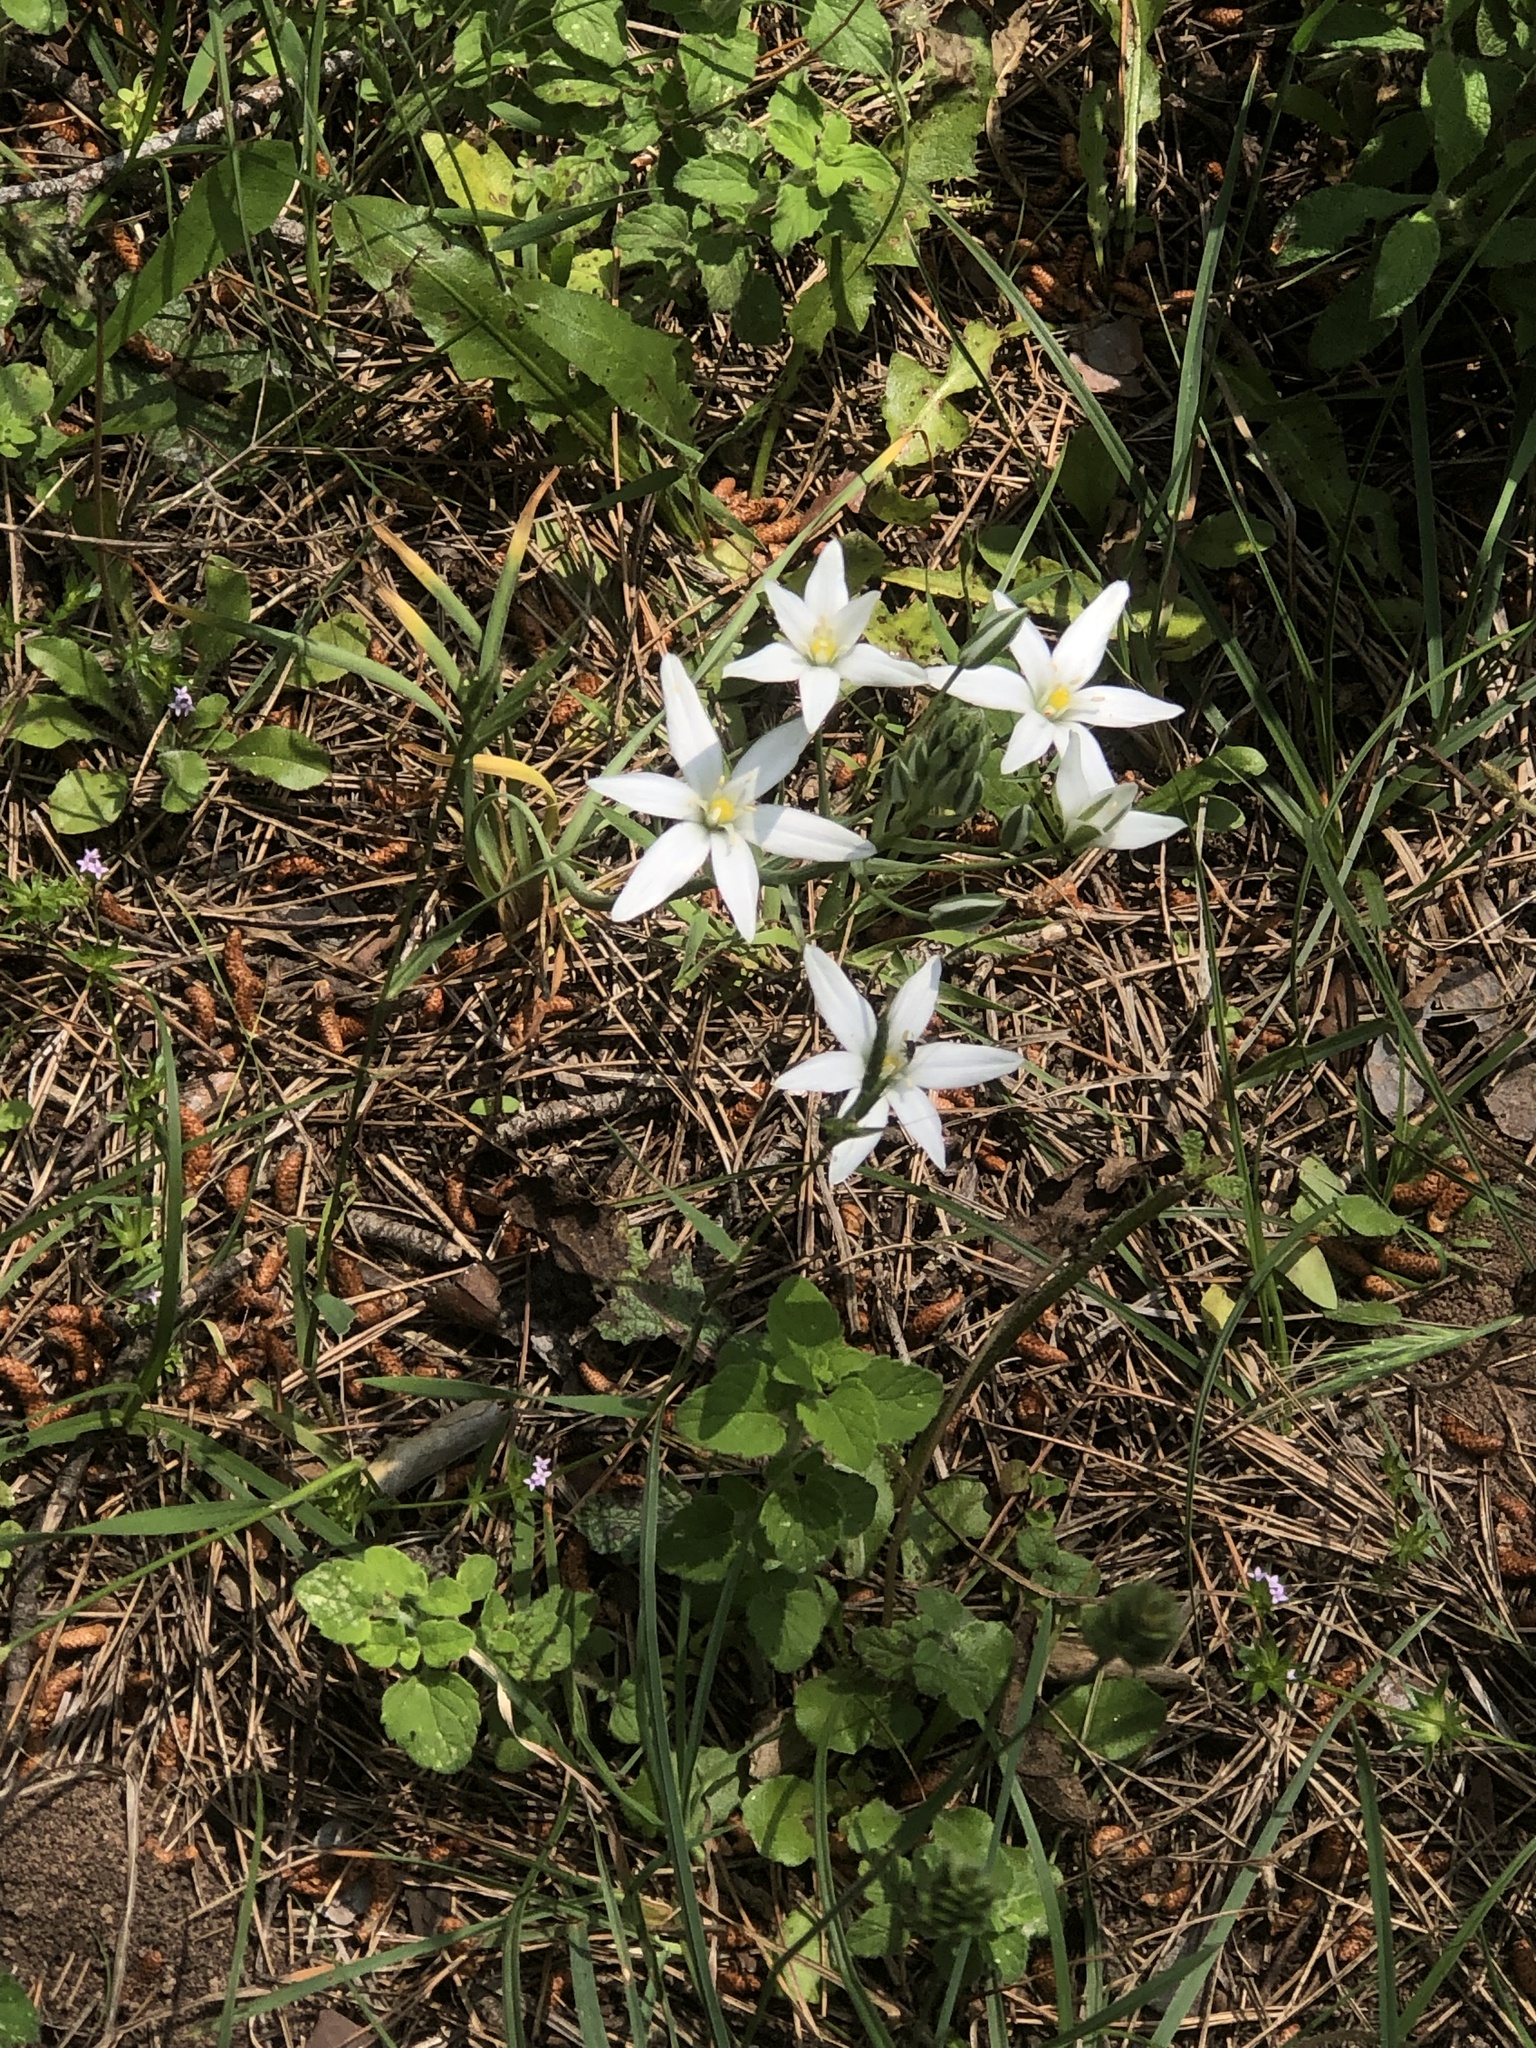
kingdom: Plantae
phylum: Tracheophyta
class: Liliopsida
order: Asparagales
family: Asparagaceae
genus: Ornithogalum
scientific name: Ornithogalum umbellatum
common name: Garden star-of-bethlehem
